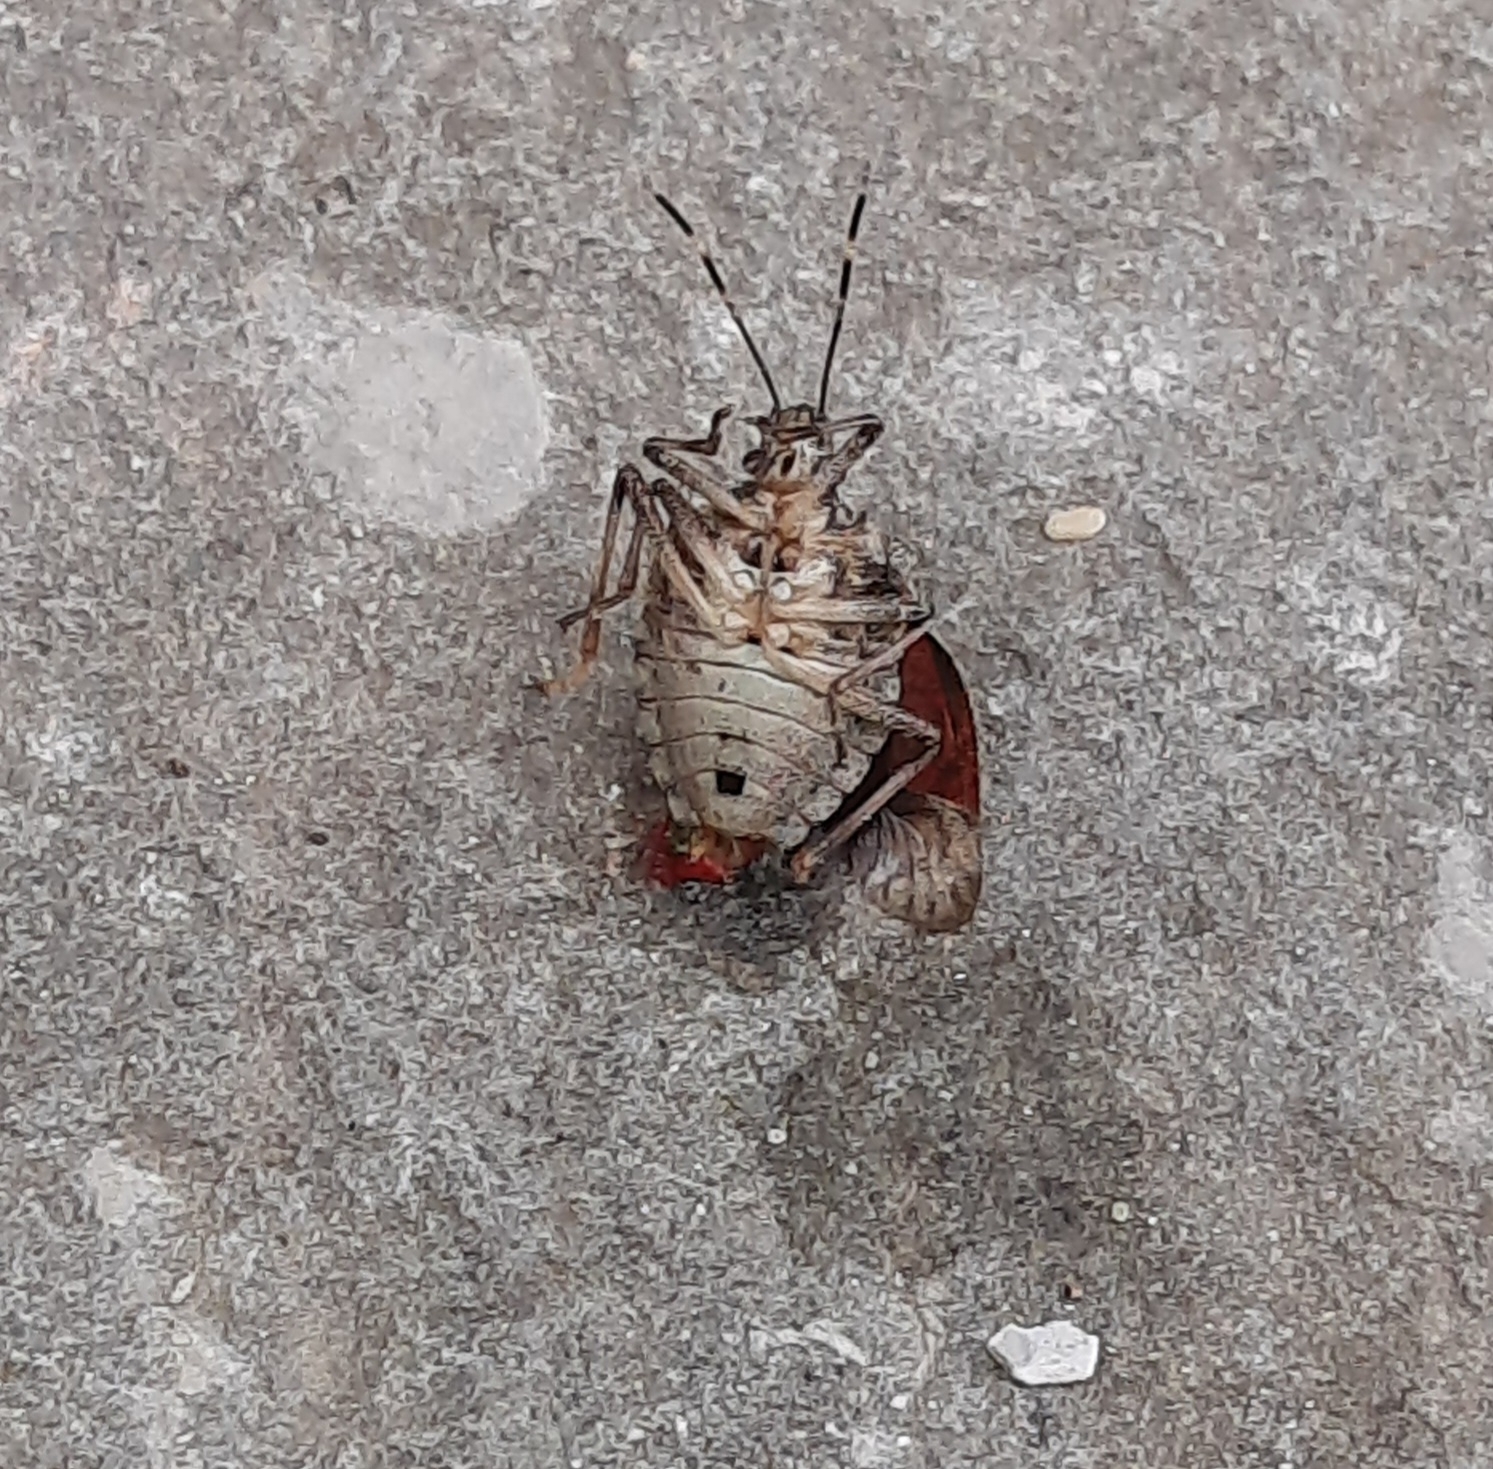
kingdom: Animalia
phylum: Arthropoda
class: Insecta
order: Hemiptera
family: Pentatomidae
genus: Halyomorpha
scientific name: Halyomorpha halys
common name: Brown marmorated stink bug
